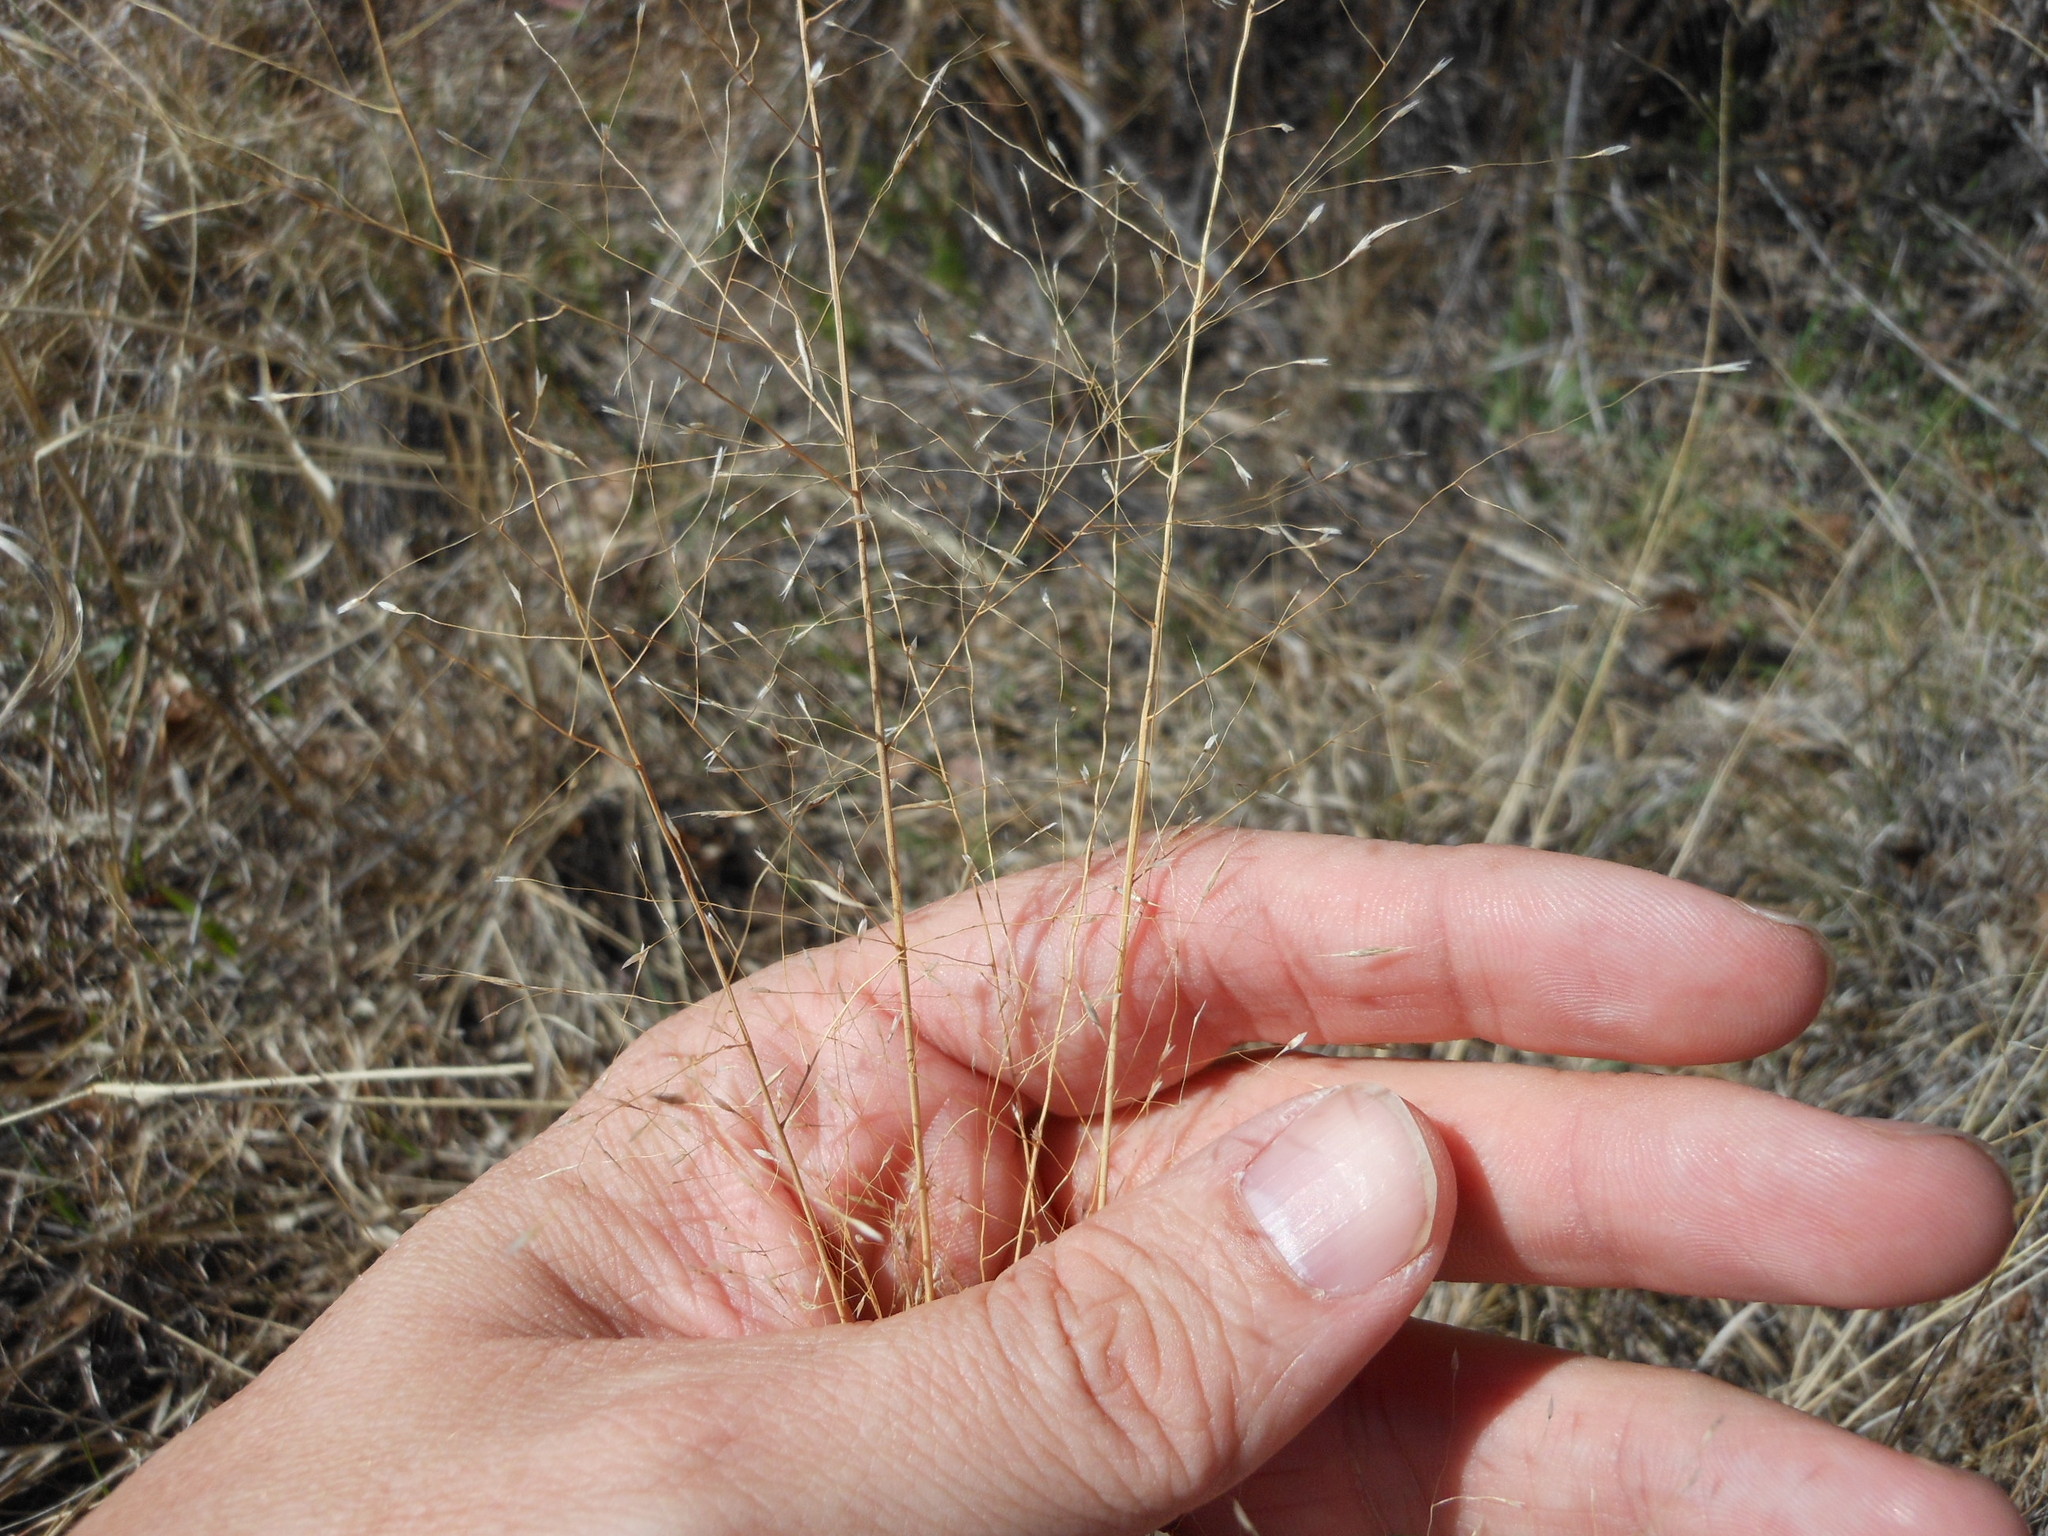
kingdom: Plantae
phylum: Tracheophyta
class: Liliopsida
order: Poales
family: Poaceae
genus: Muhlenbergia
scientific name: Muhlenbergia reverchonii
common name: Seep muhly
